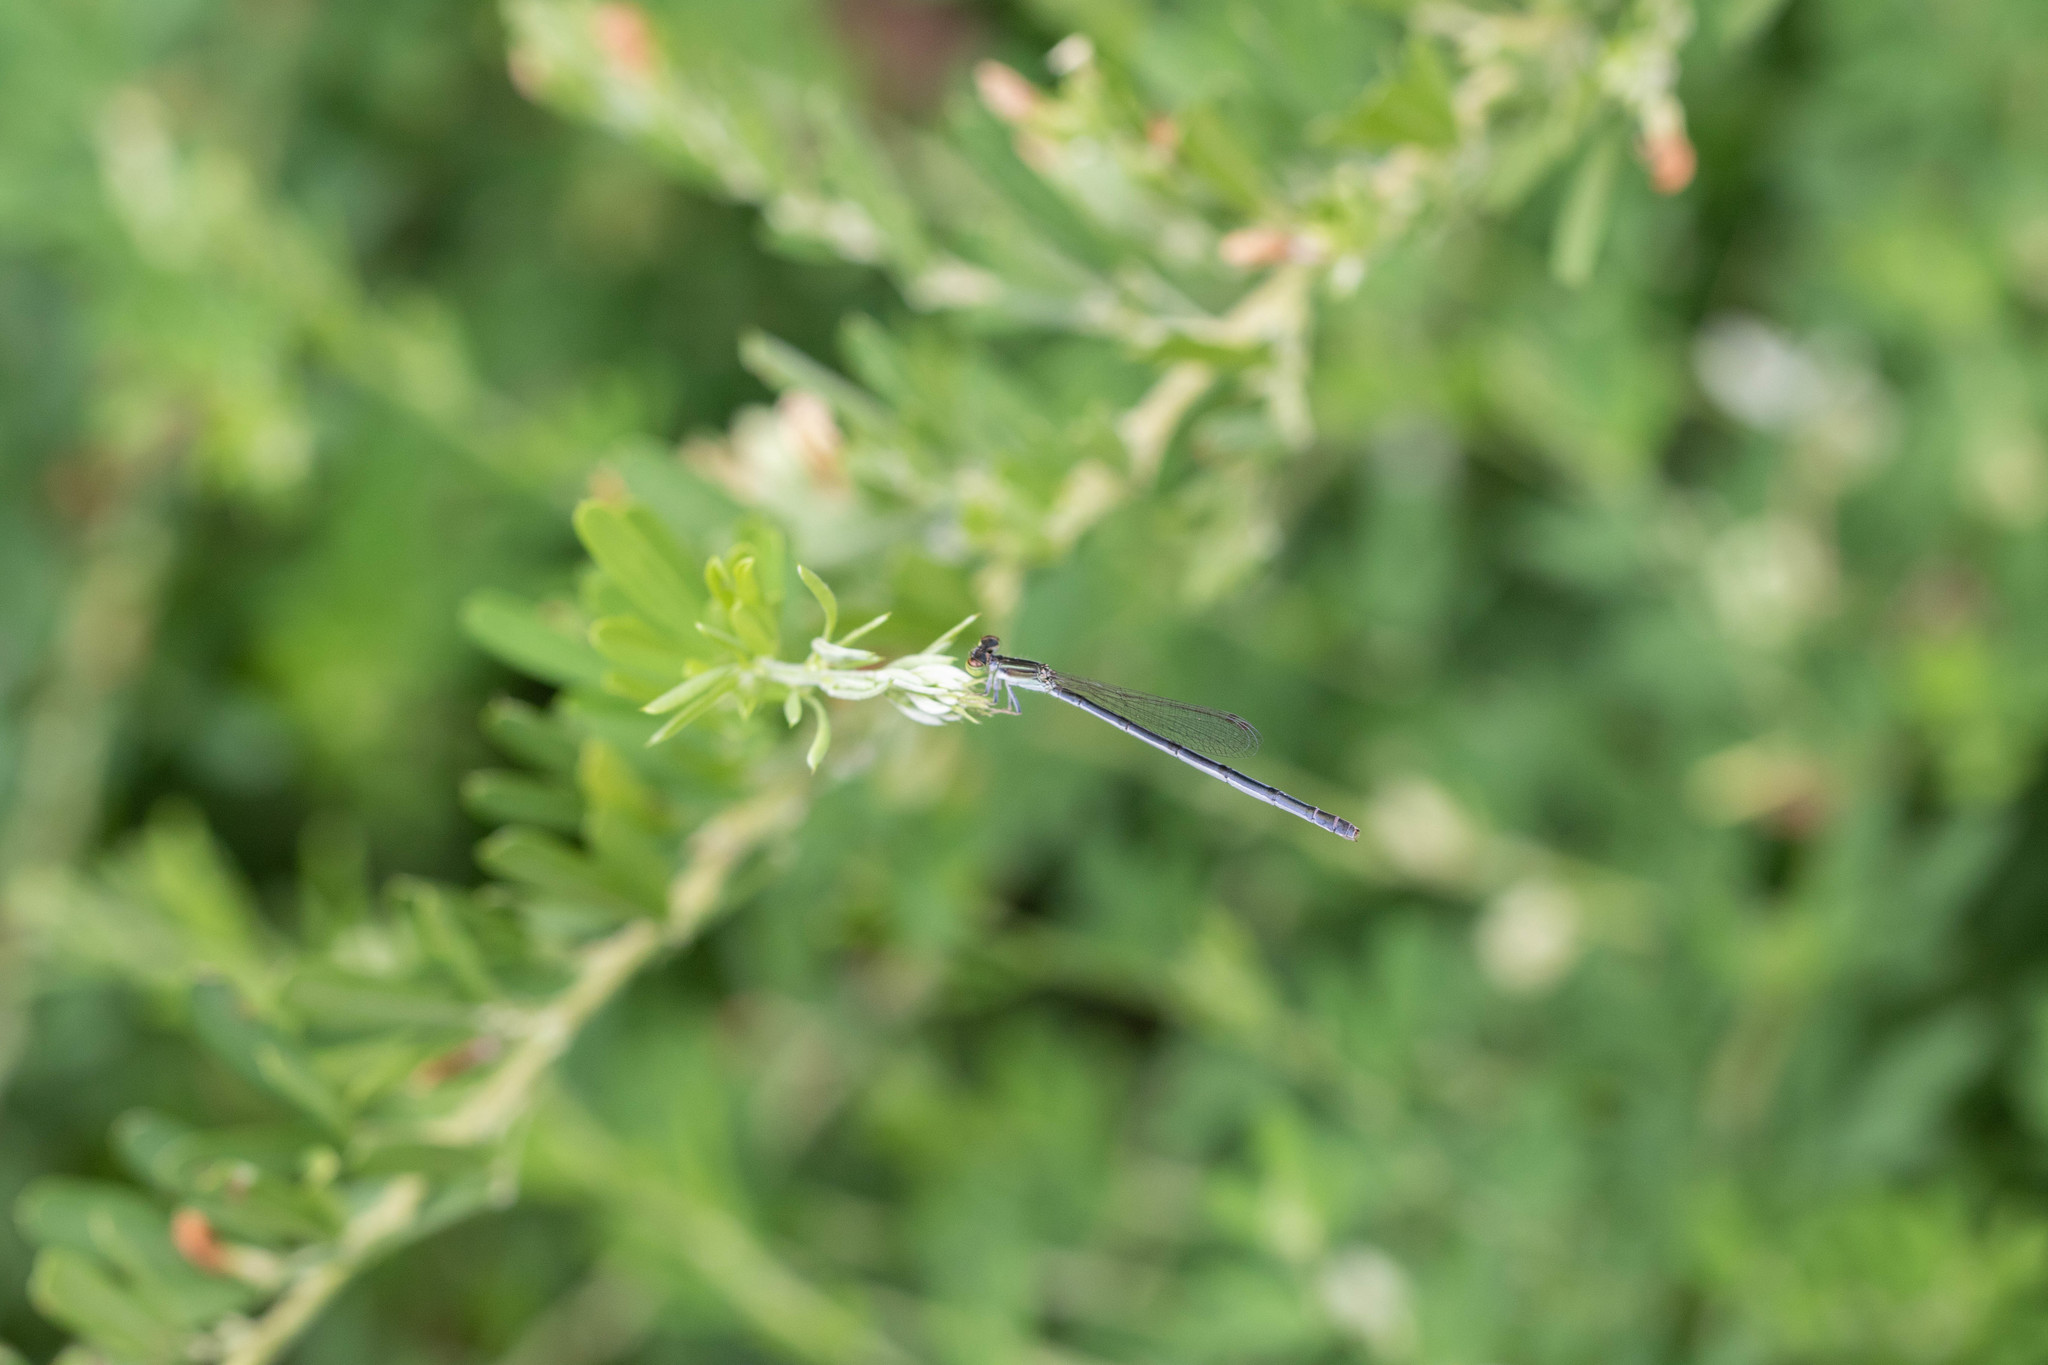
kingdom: Animalia
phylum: Arthropoda
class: Insecta
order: Odonata
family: Coenagrionidae
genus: Ischnura
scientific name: Ischnura hastata
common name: Citrine forktail
